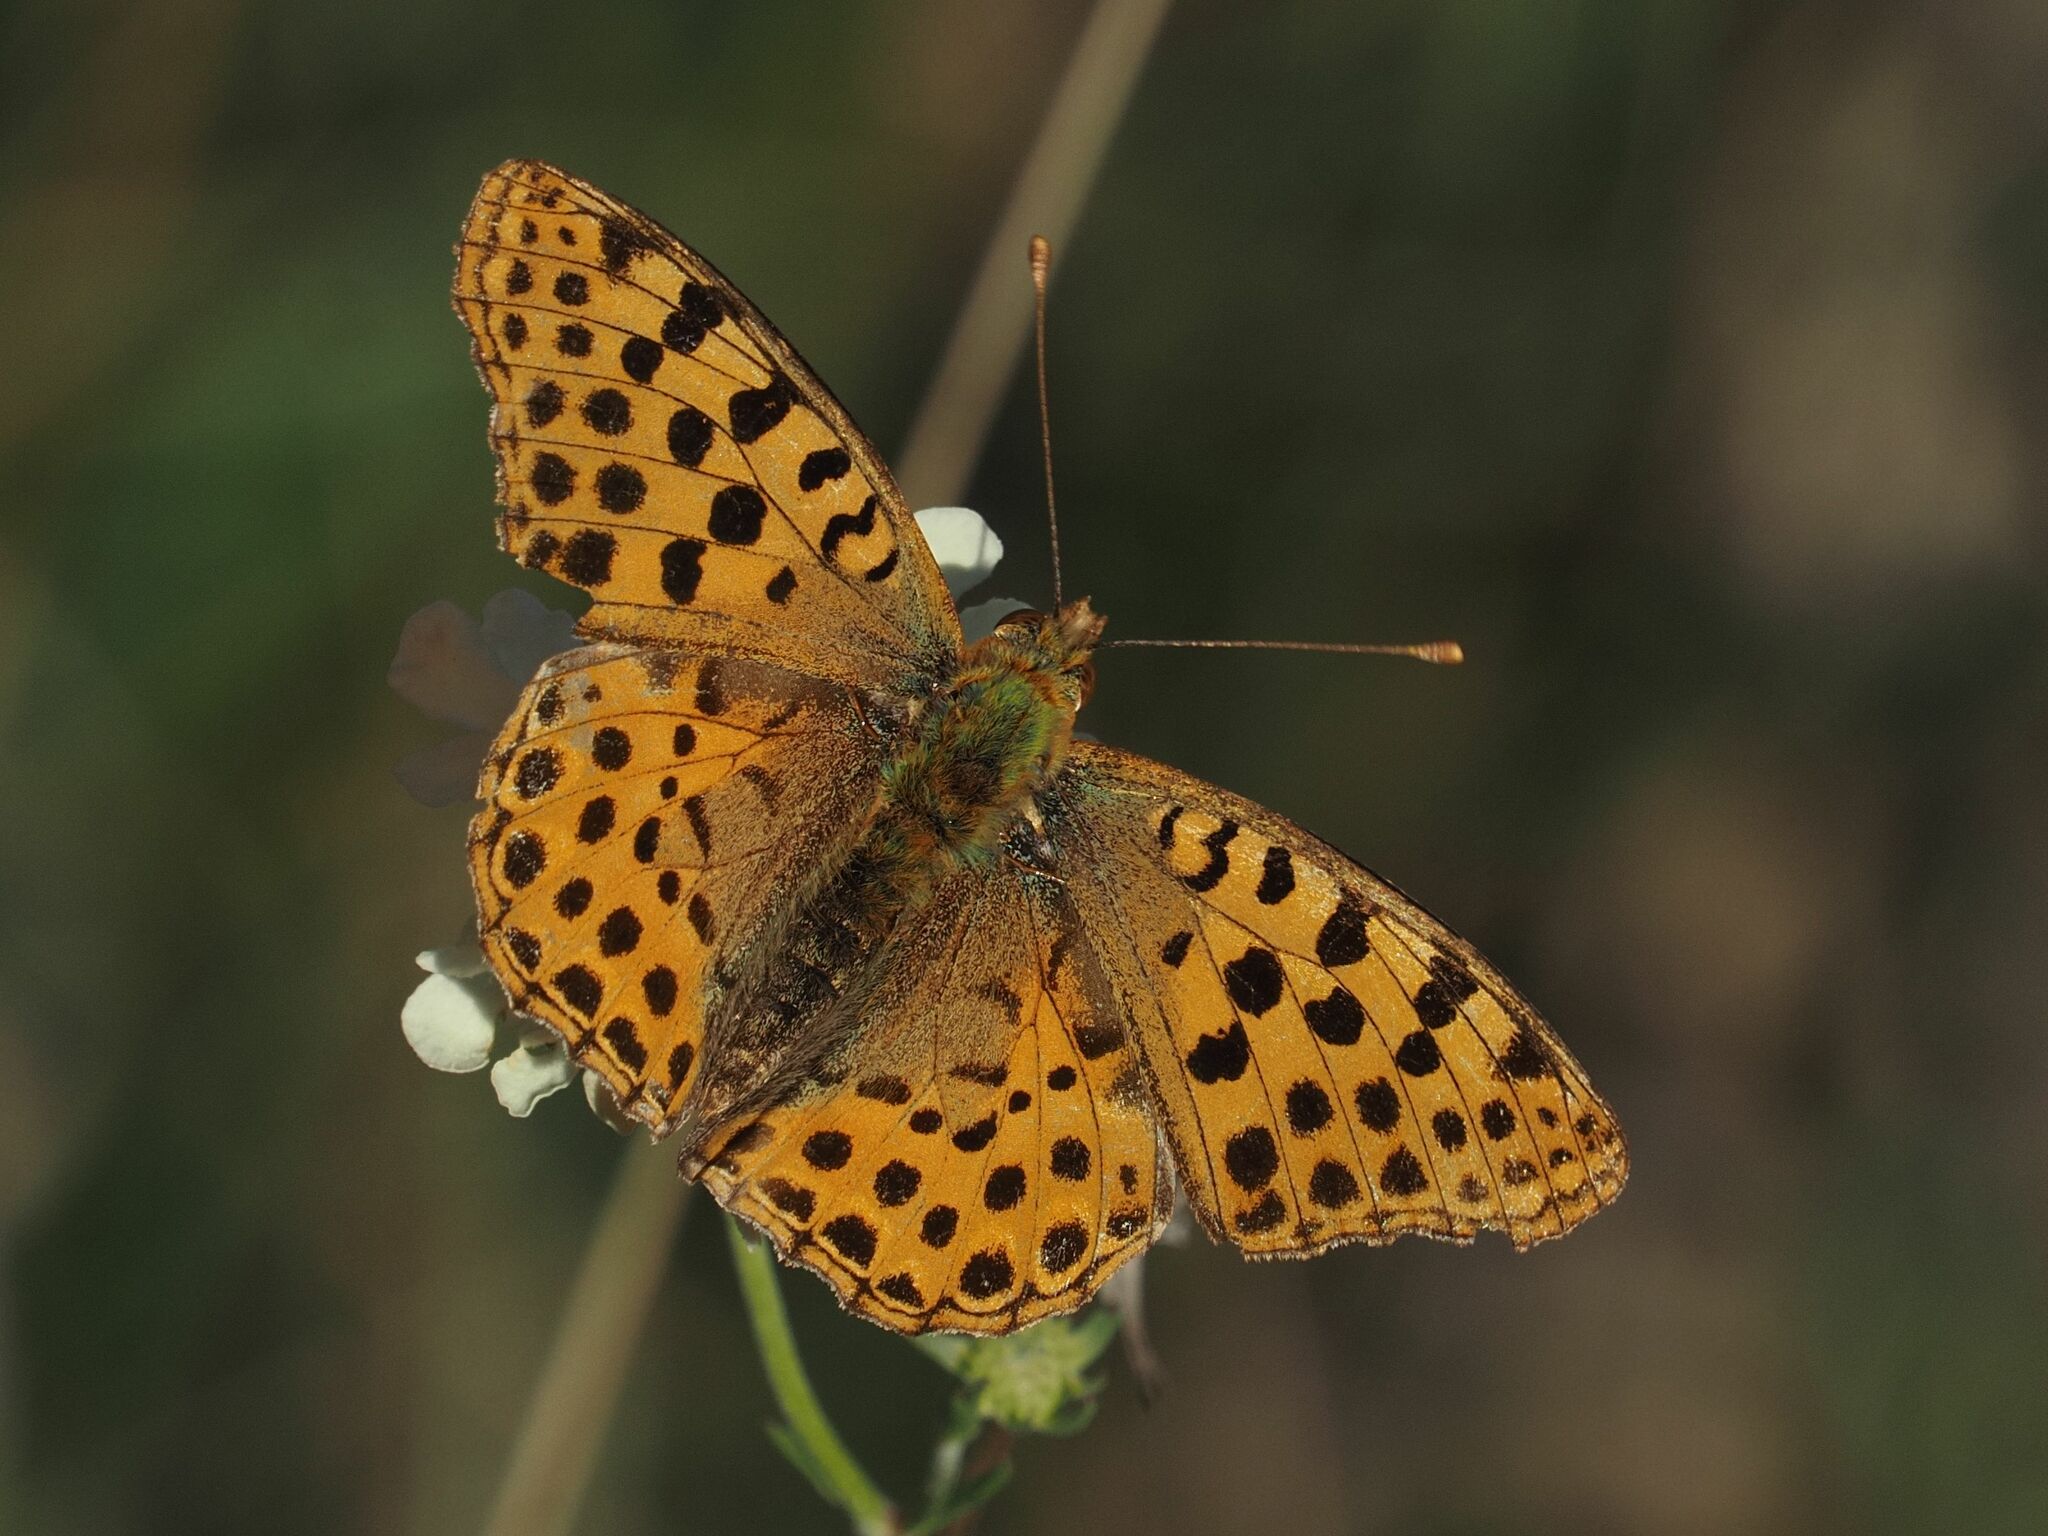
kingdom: Animalia
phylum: Arthropoda
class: Insecta
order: Lepidoptera
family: Nymphalidae
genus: Issoria
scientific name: Issoria lathonia
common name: Queen of spain fritillary
